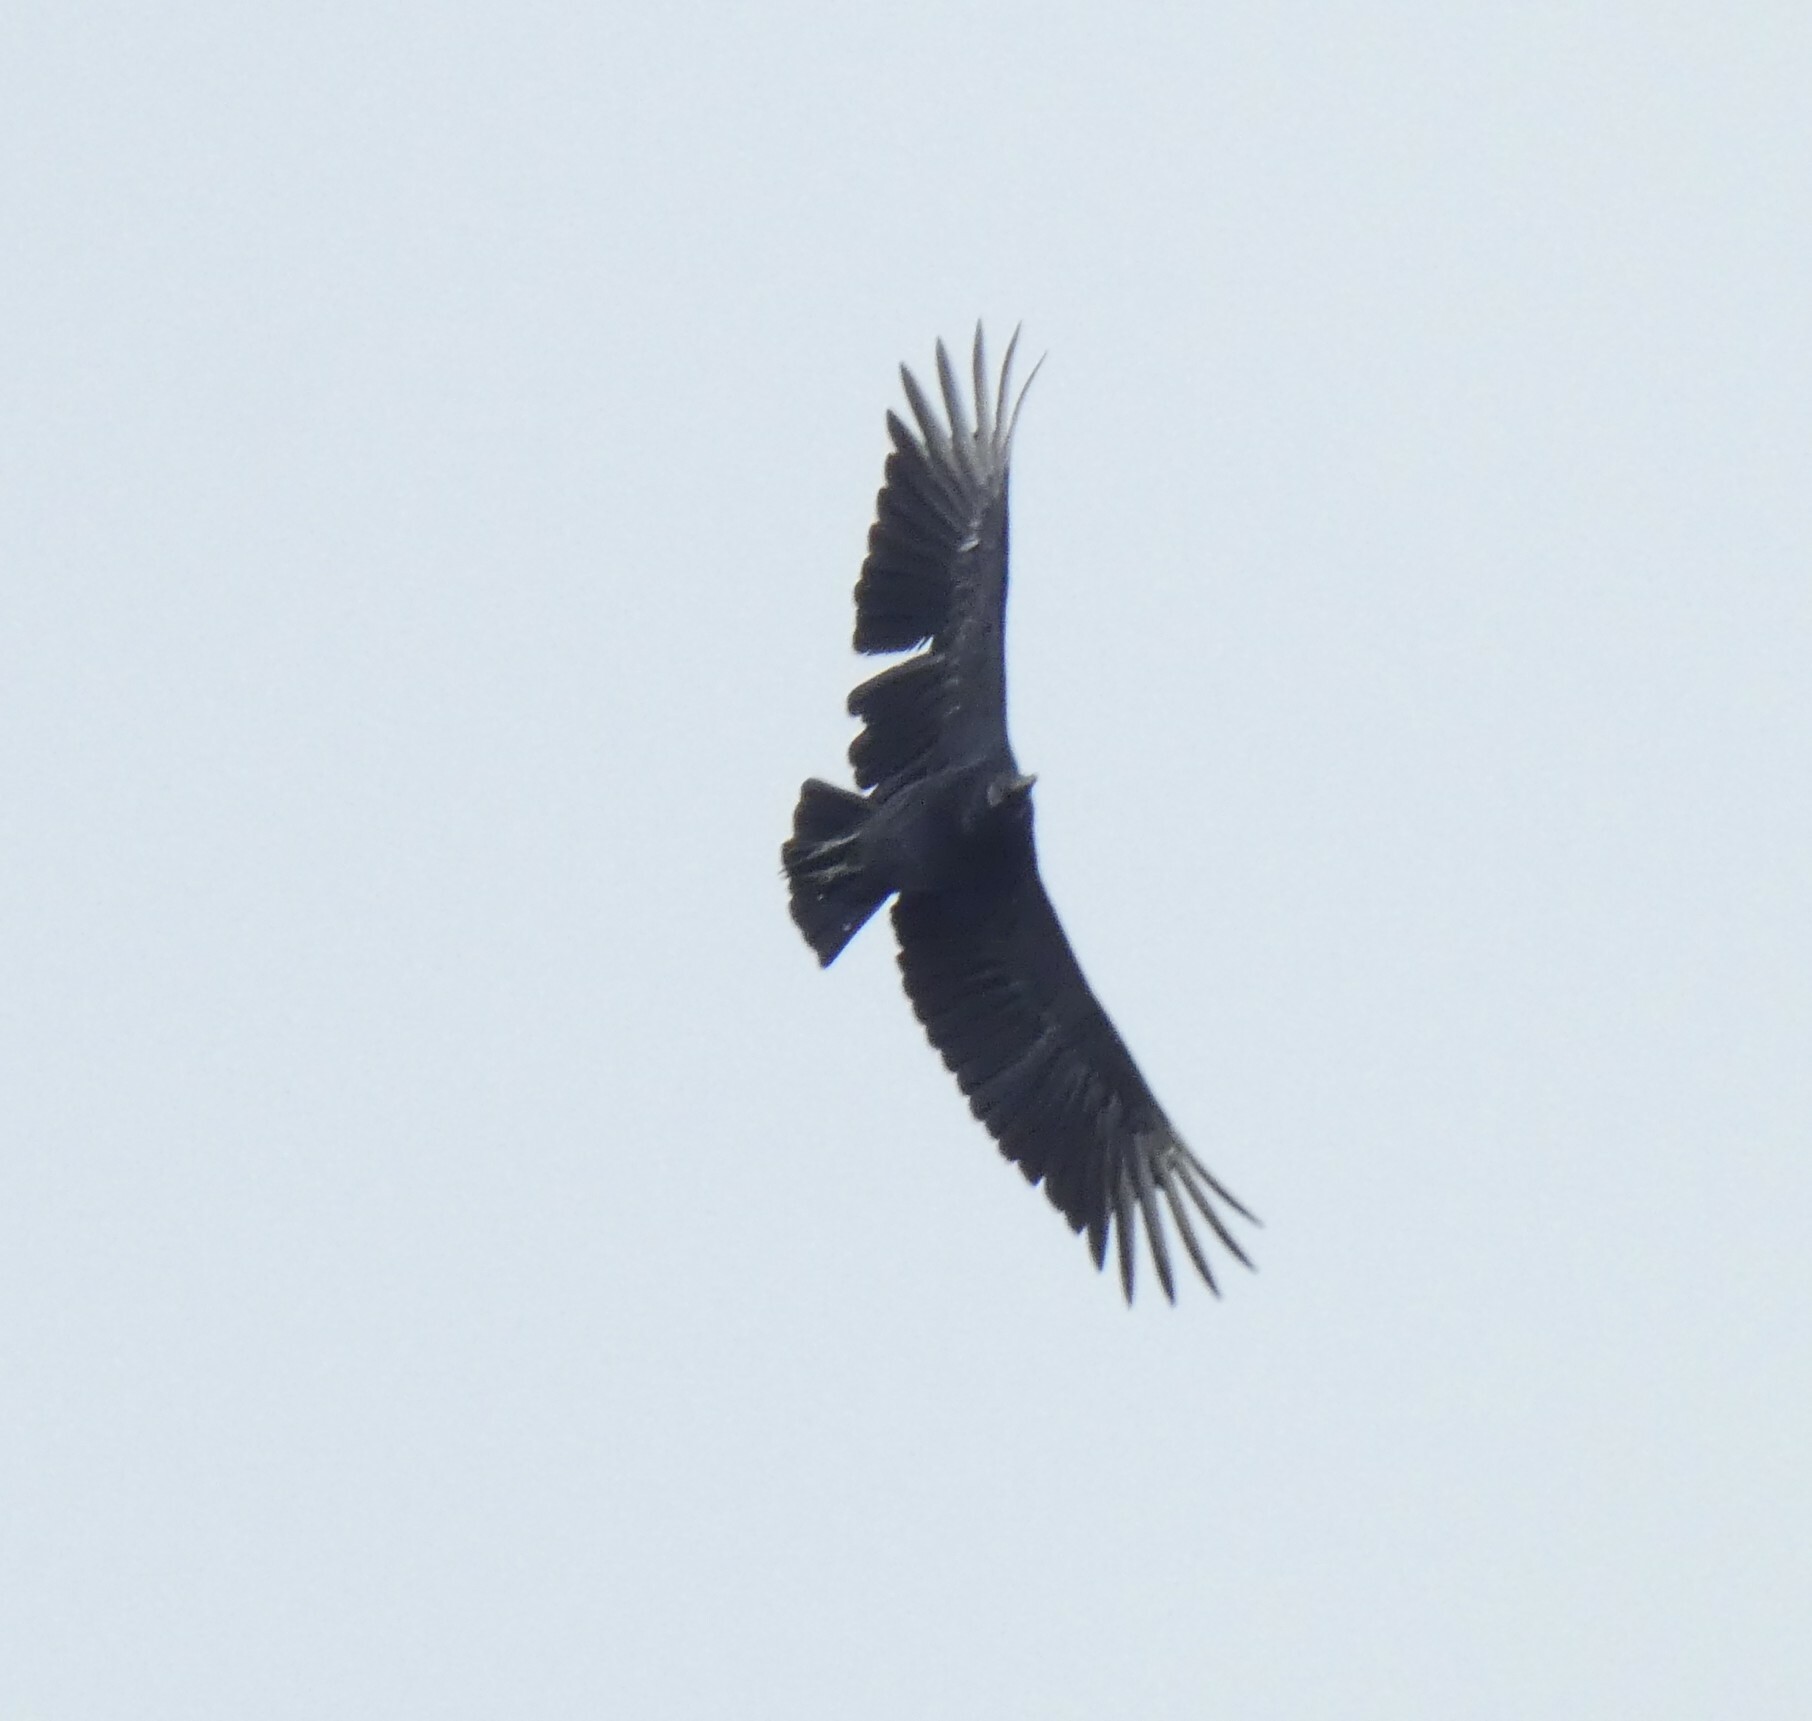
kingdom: Animalia
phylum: Chordata
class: Aves
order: Accipitriformes
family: Cathartidae
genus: Coragyps
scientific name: Coragyps atratus
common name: Black vulture
